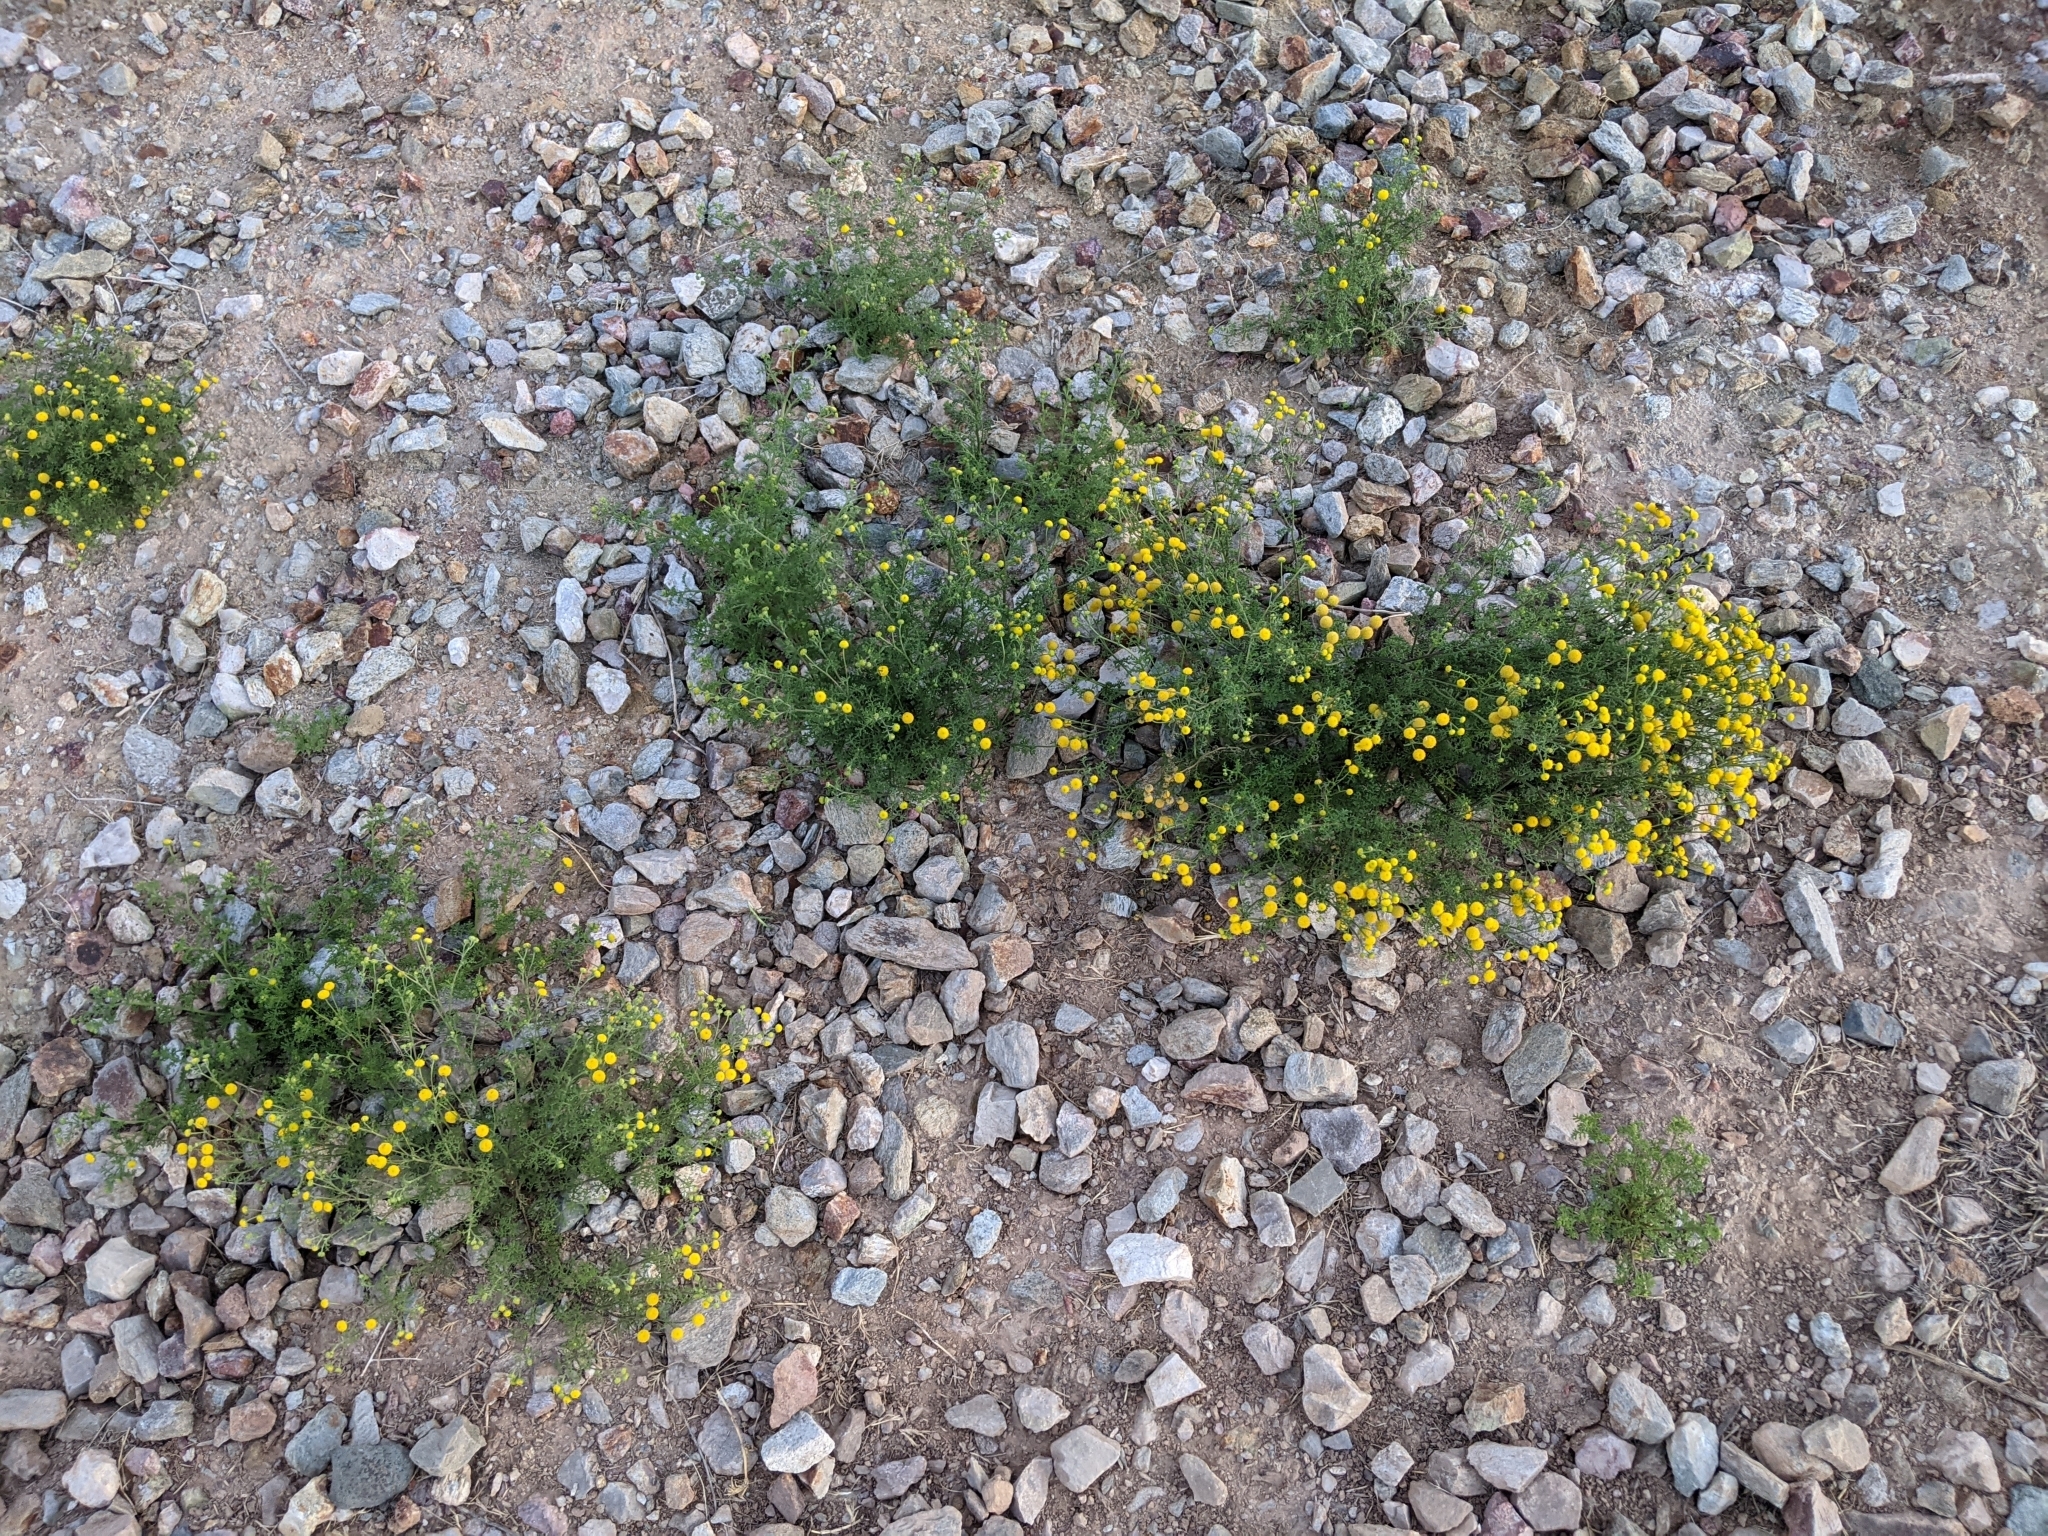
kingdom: Plantae
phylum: Tracheophyta
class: Magnoliopsida
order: Asterales
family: Asteraceae
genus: Oncosiphon
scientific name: Oncosiphon pilulifer
